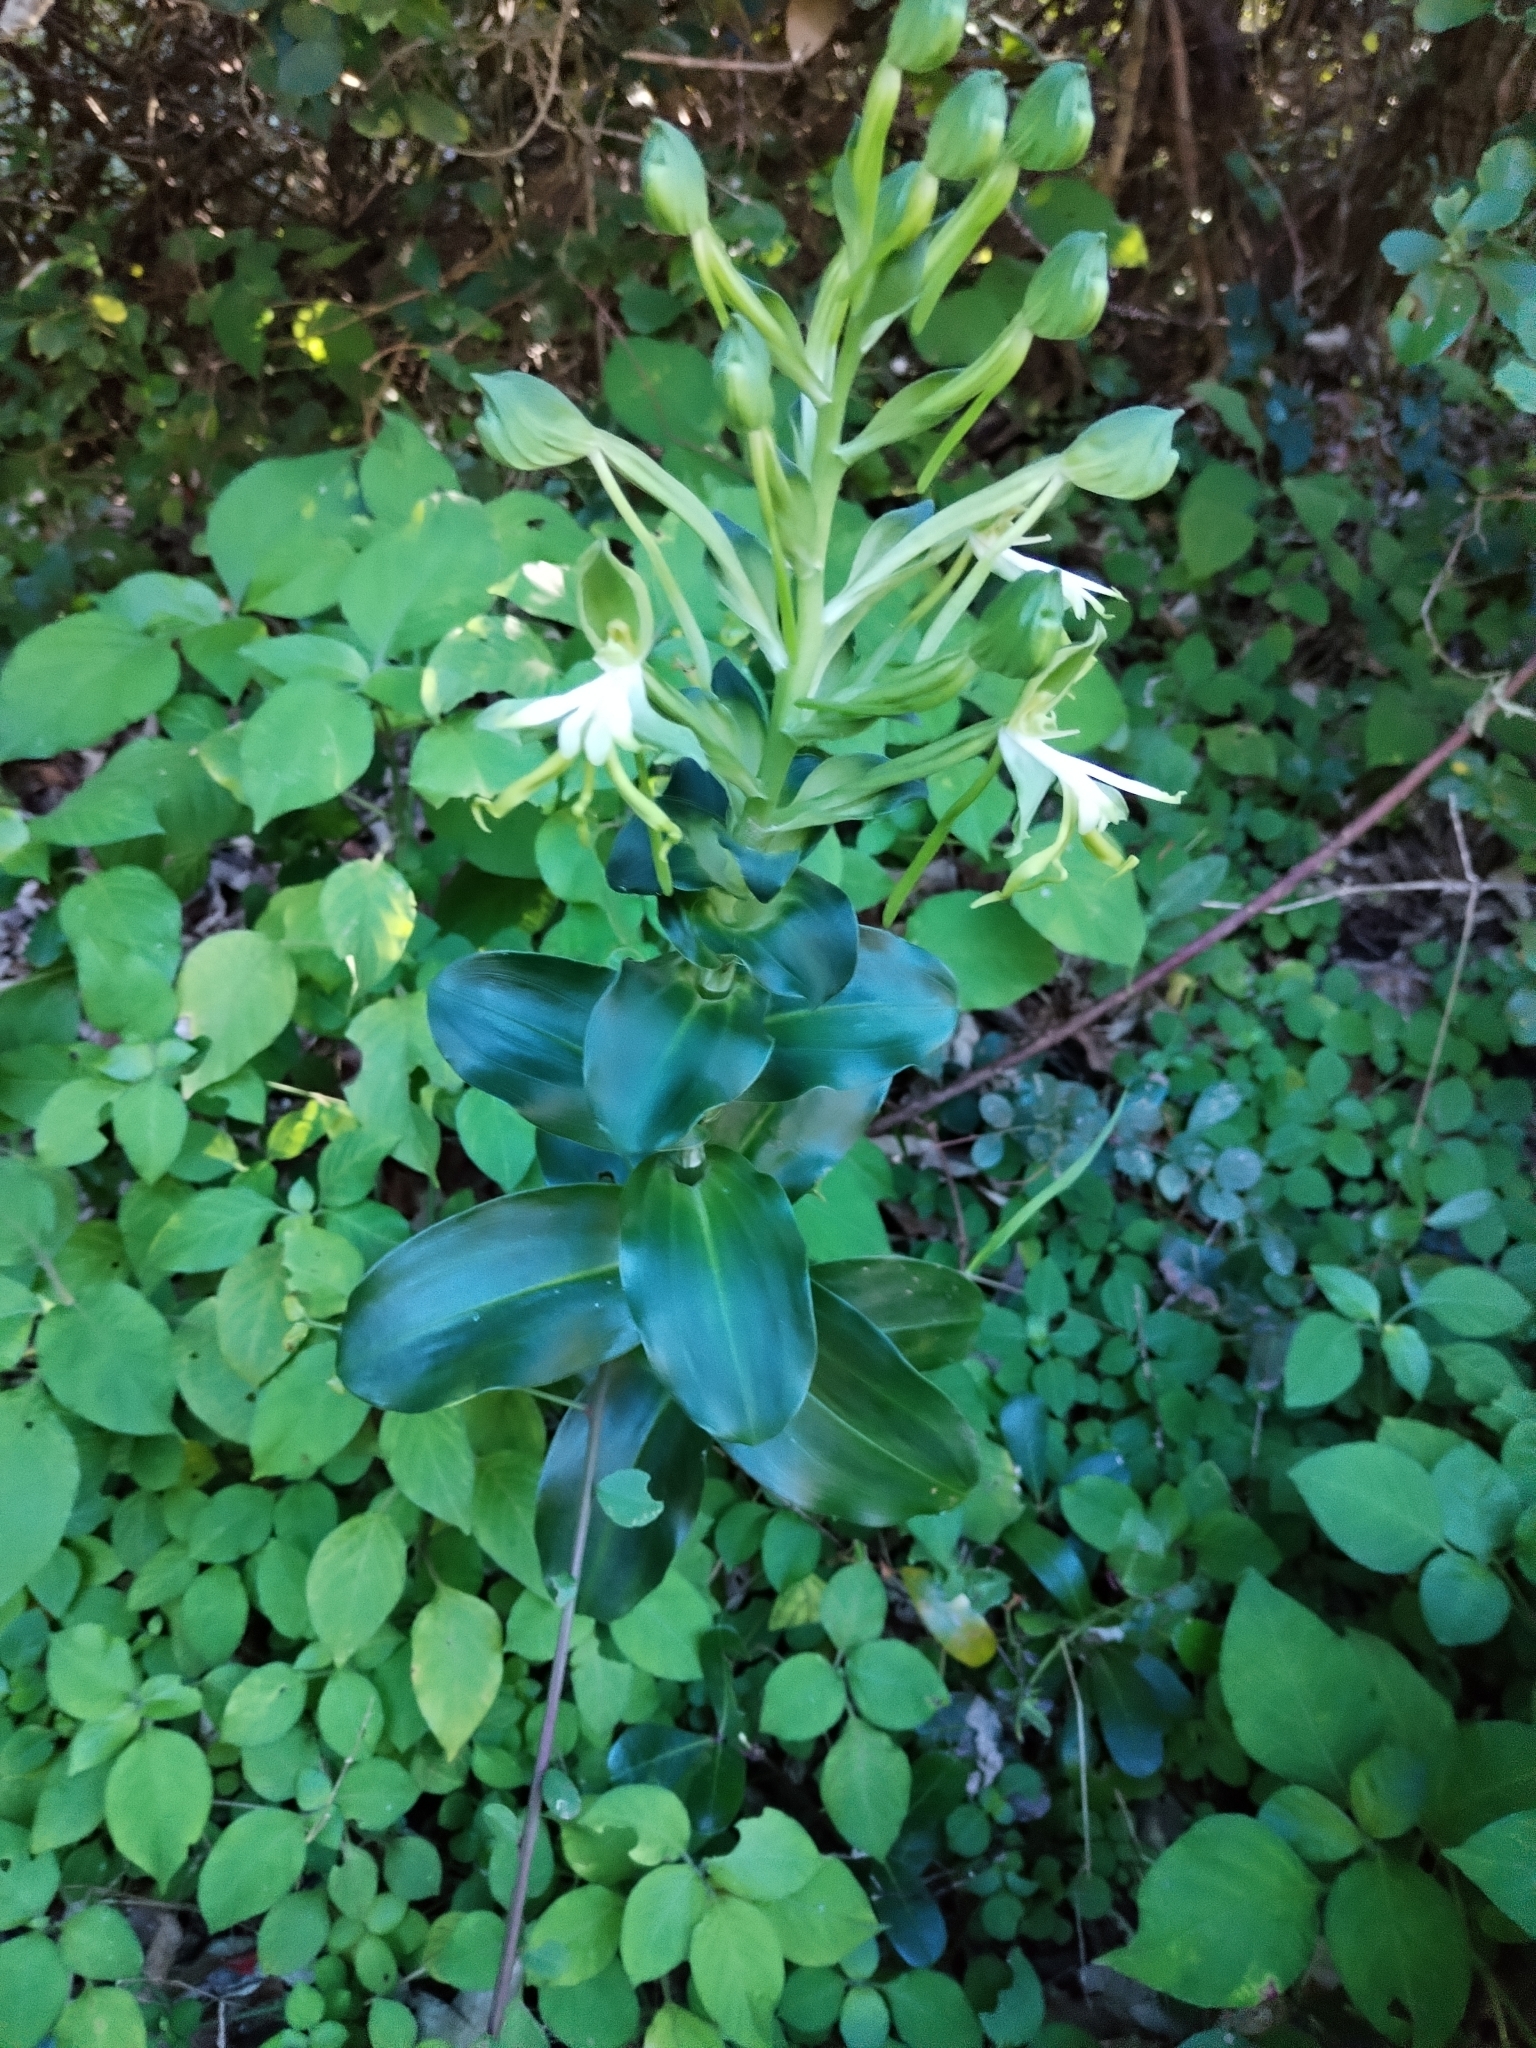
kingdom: Plantae
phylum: Tracheophyta
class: Liliopsida
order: Asparagales
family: Orchidaceae
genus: Bonatea
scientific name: Bonatea speciosa
